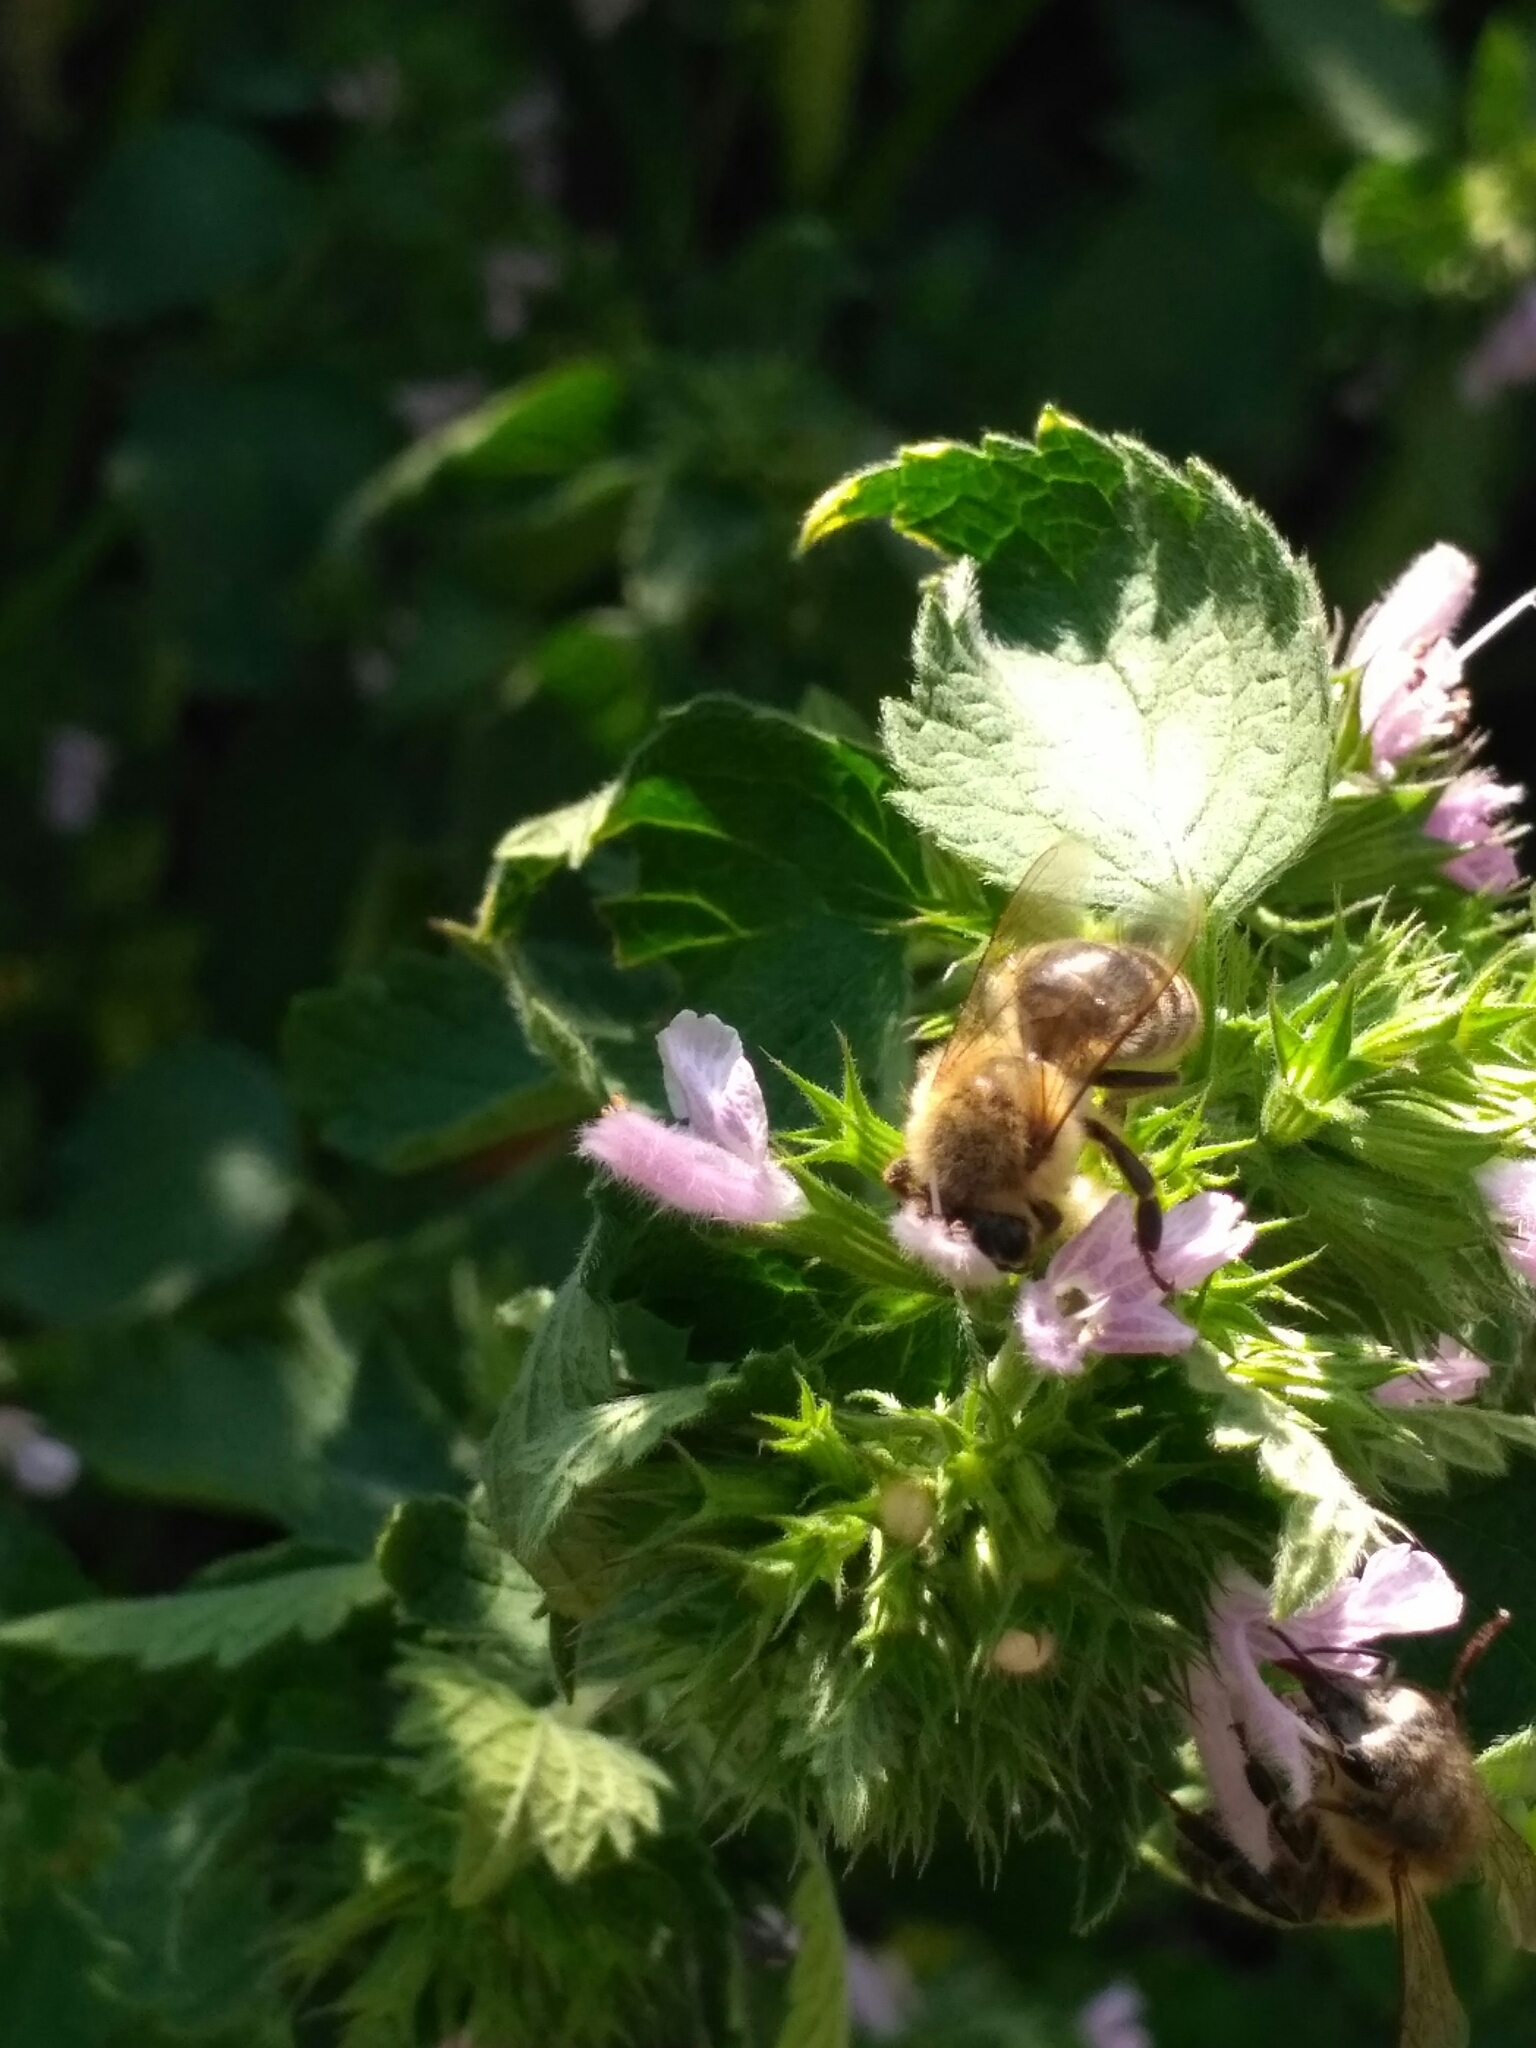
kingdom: Animalia
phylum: Arthropoda
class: Insecta
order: Hymenoptera
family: Apidae
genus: Apis
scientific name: Apis mellifera
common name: Honey bee
